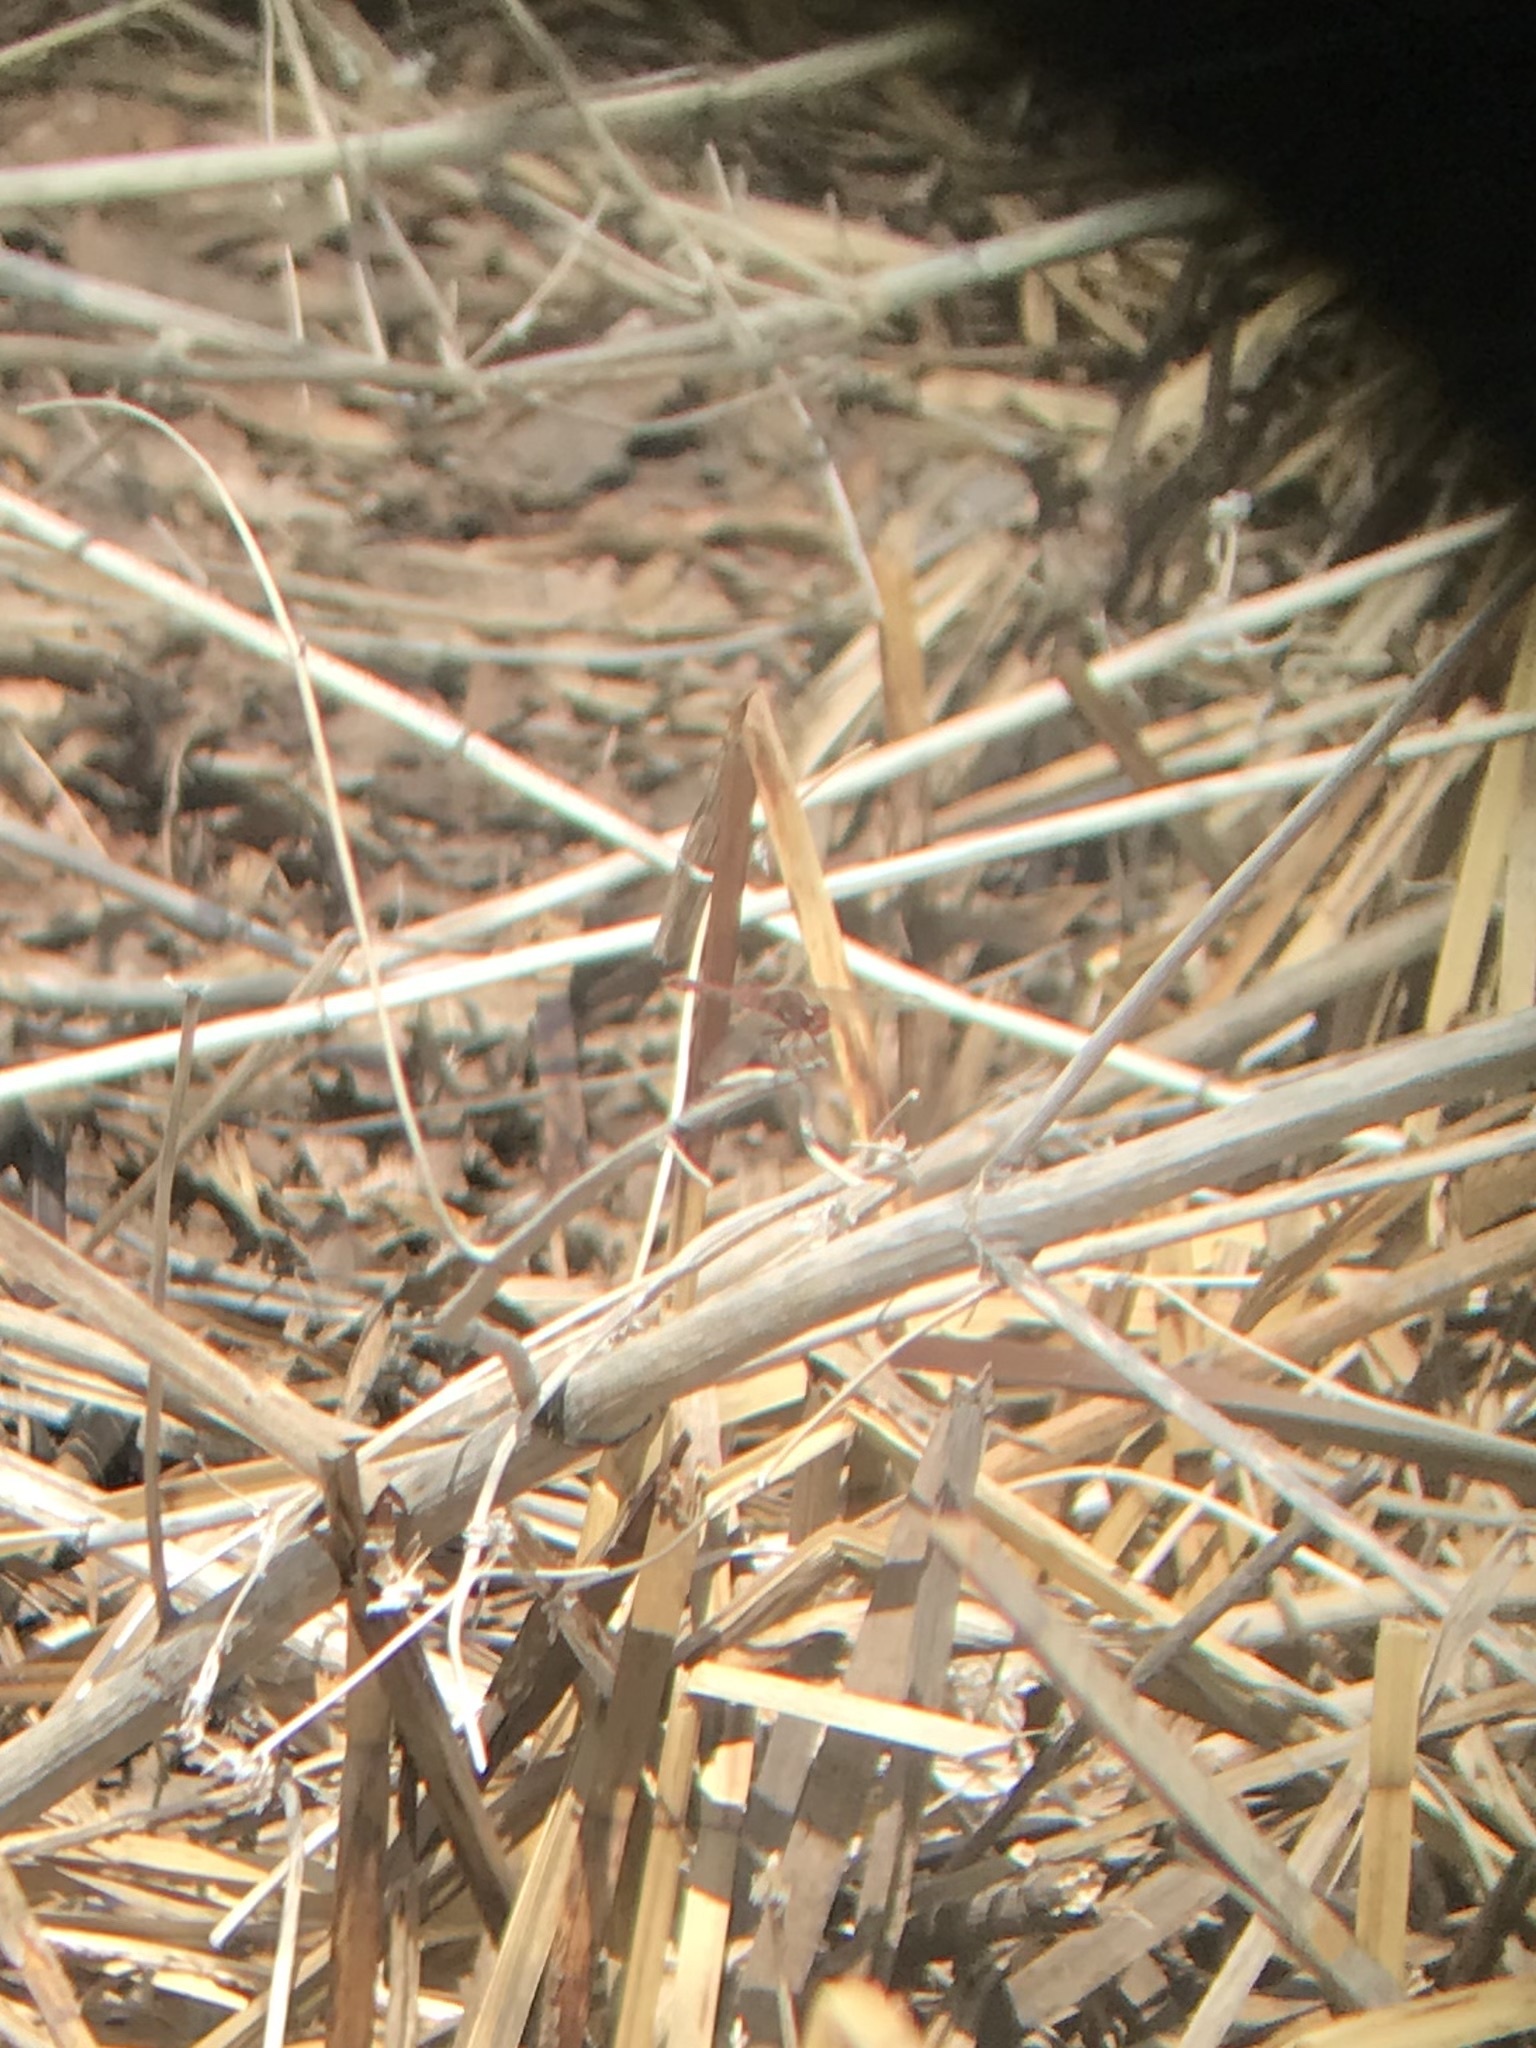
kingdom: Animalia
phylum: Arthropoda
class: Insecta
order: Odonata
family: Libellulidae
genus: Sympetrum
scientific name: Sympetrum corruptum
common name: Variegated meadowhawk
